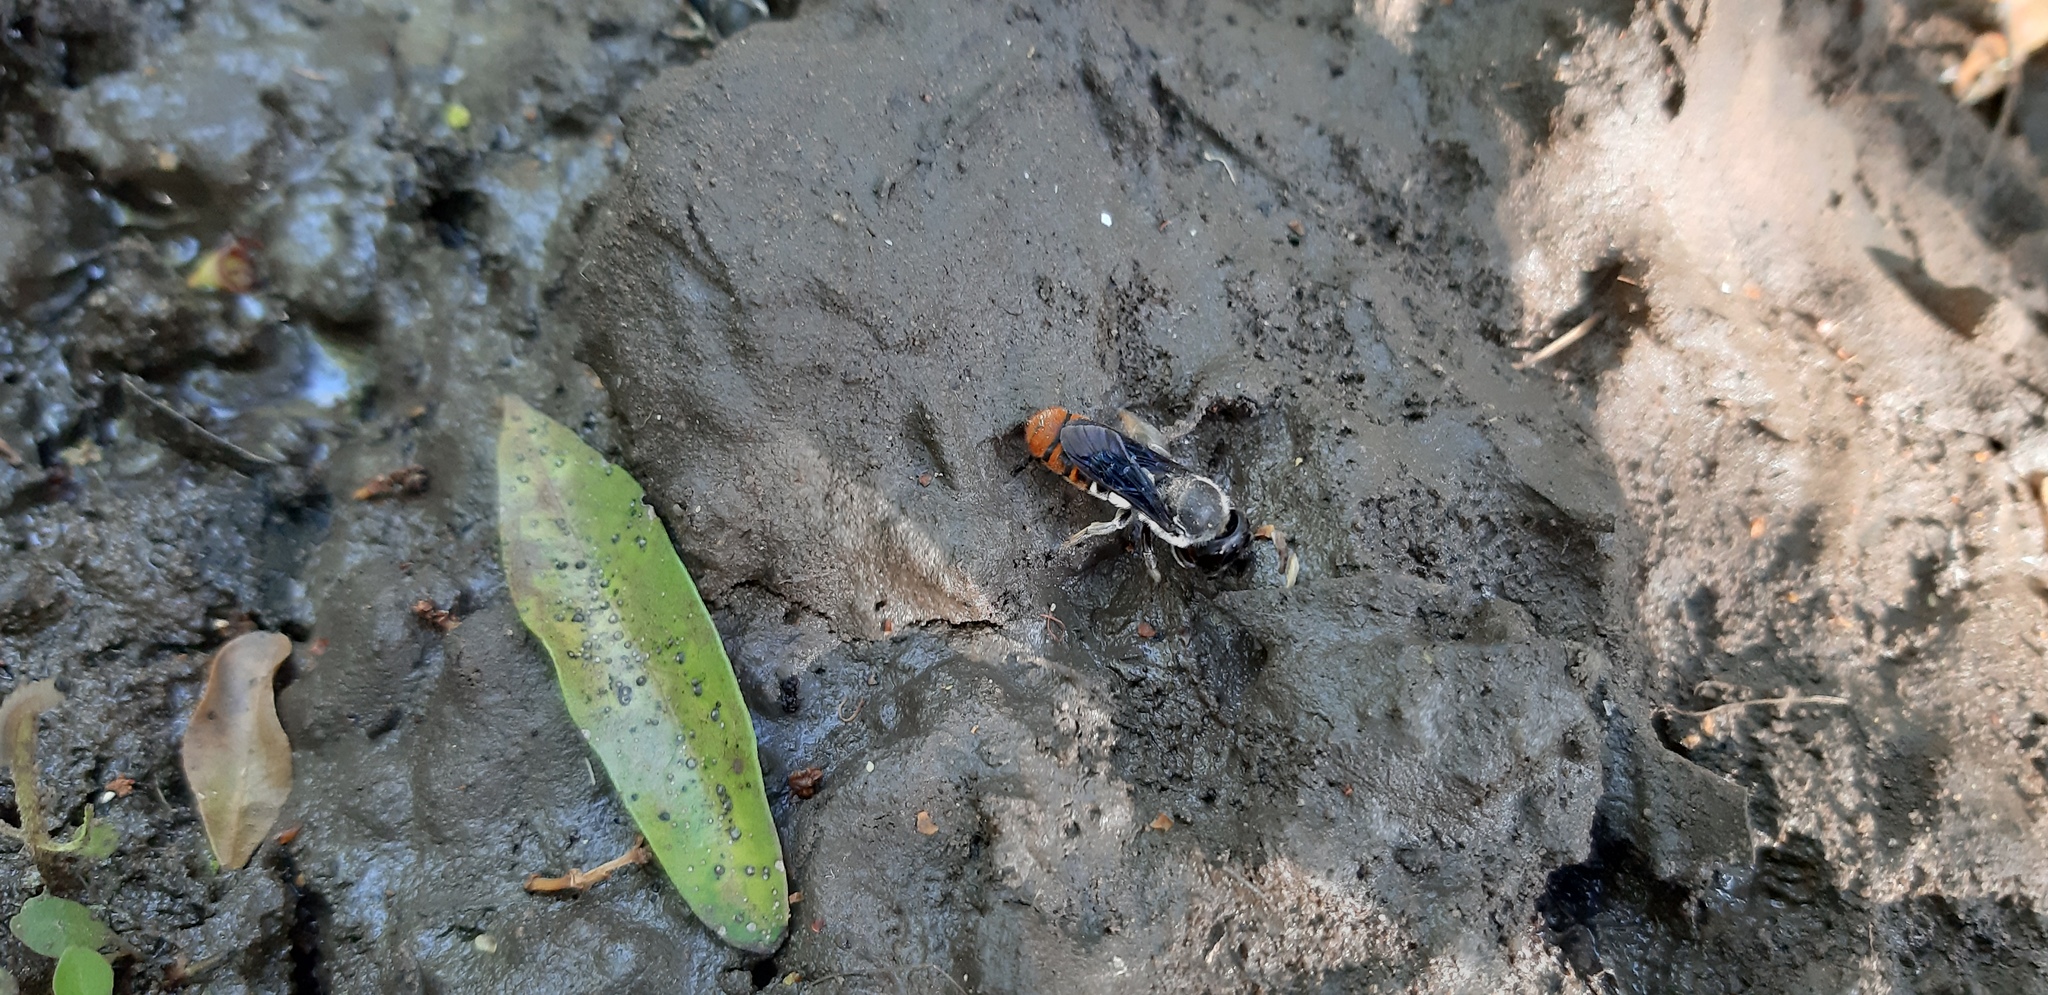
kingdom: Animalia
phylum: Arthropoda
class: Insecta
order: Hymenoptera
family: Megachilidae
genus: Megachile
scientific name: Megachile chrysorrhoea
